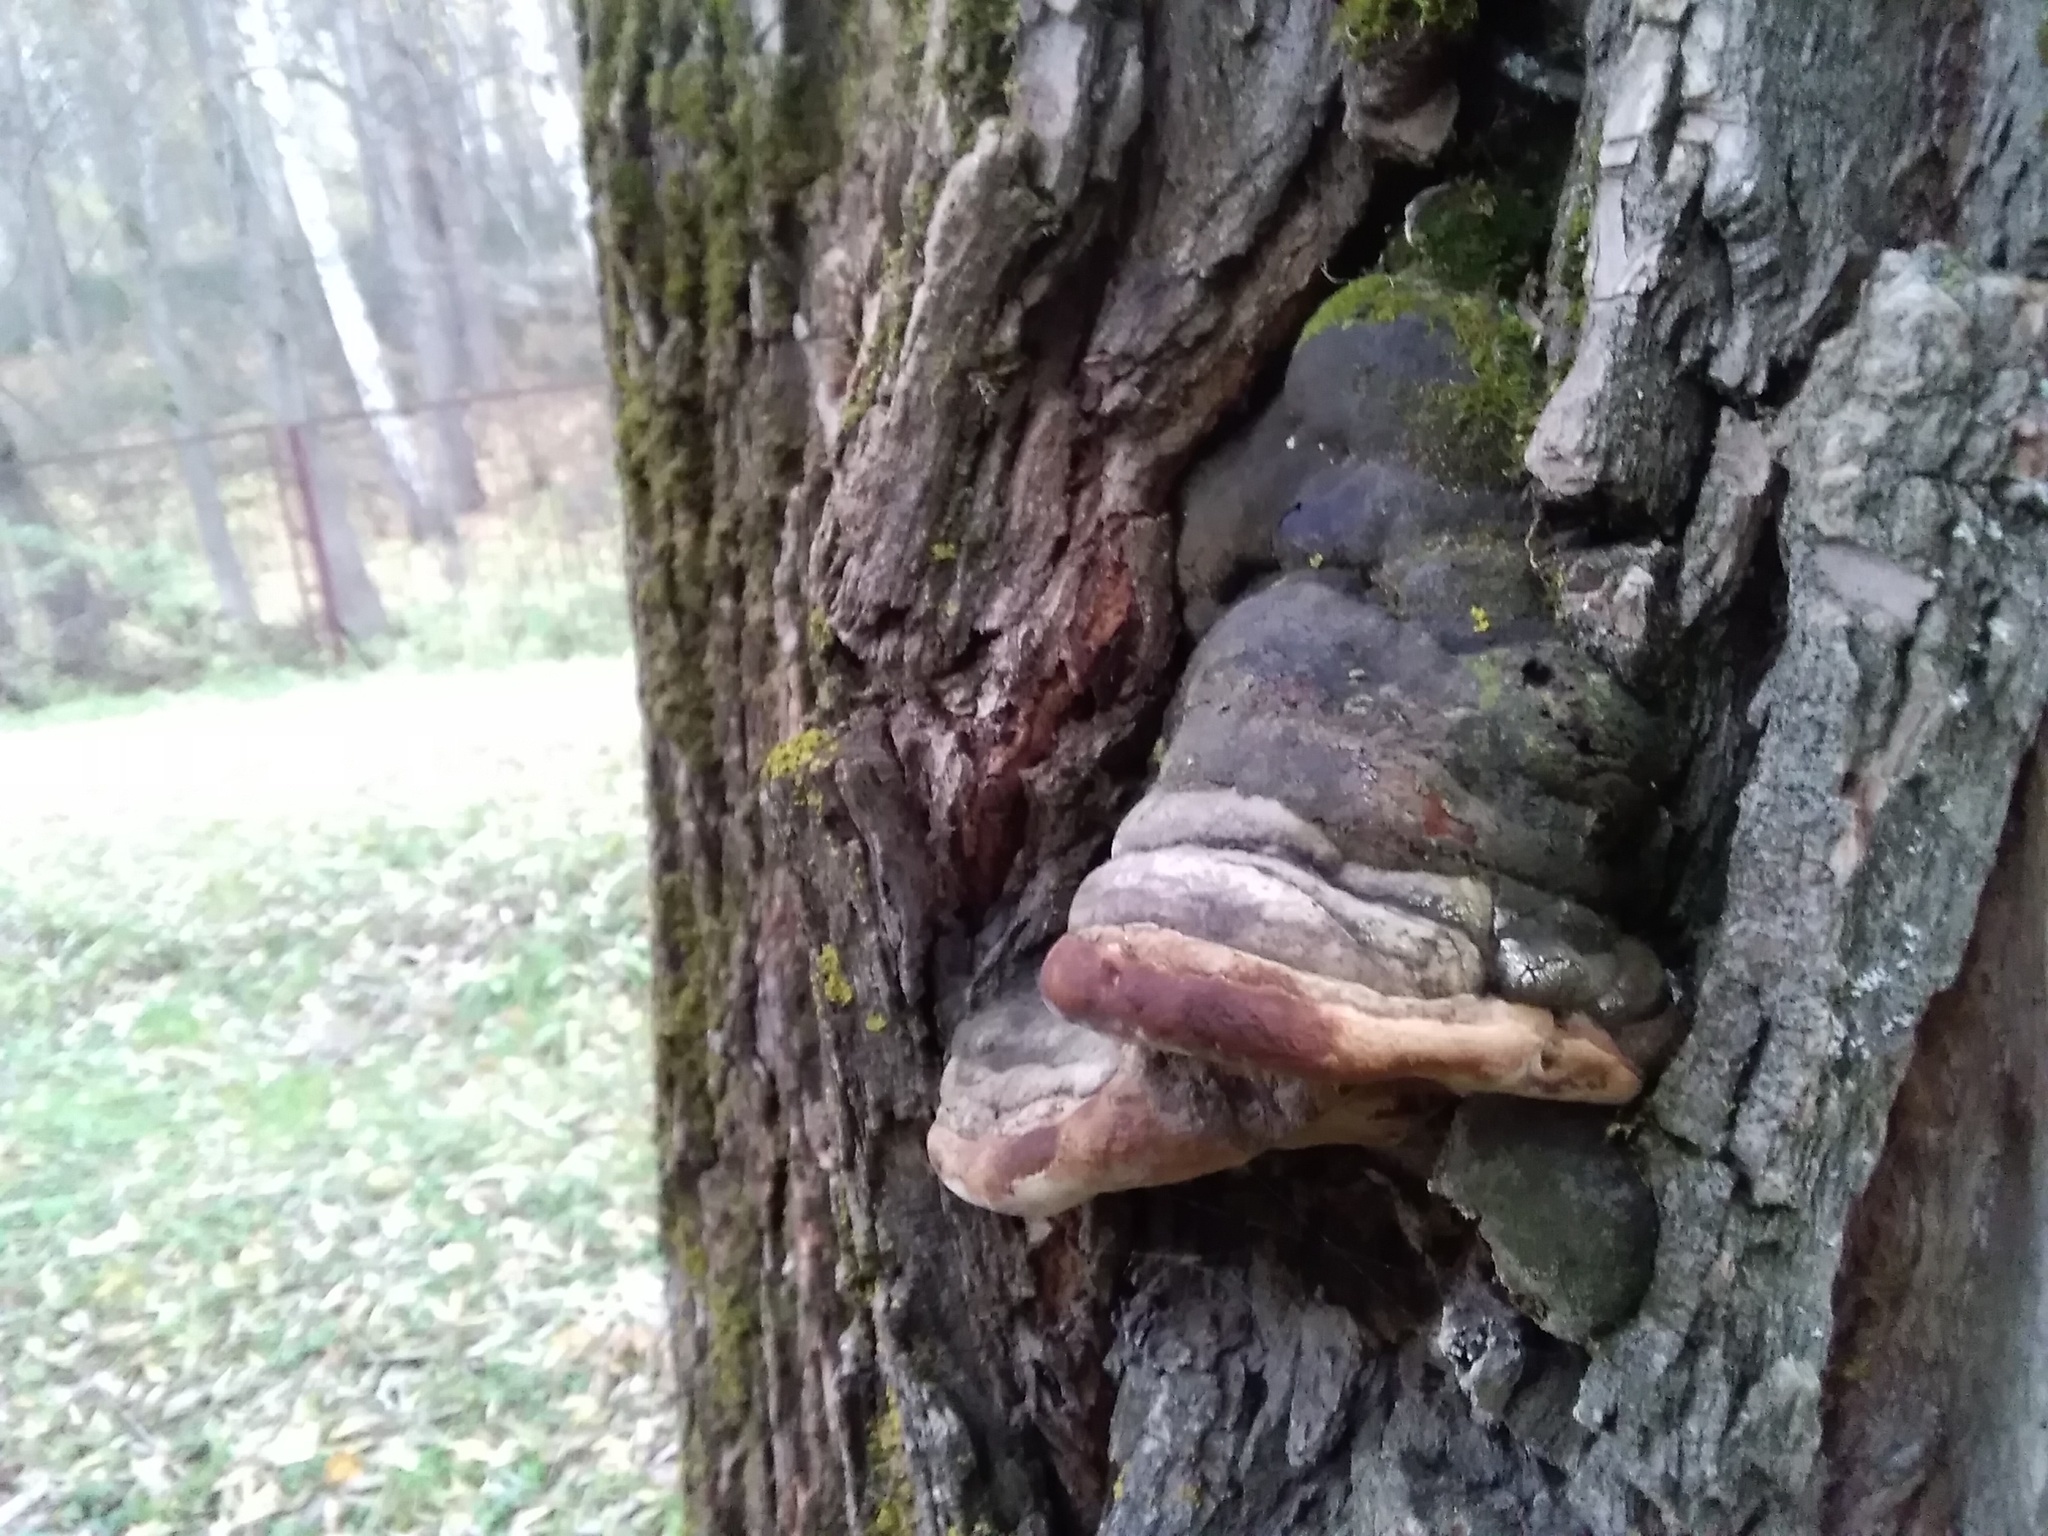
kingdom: Fungi
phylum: Basidiomycota
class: Agaricomycetes
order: Hymenochaetales
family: Hymenochaetaceae
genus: Phellinus
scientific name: Phellinus igniarius
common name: Willow bracket
